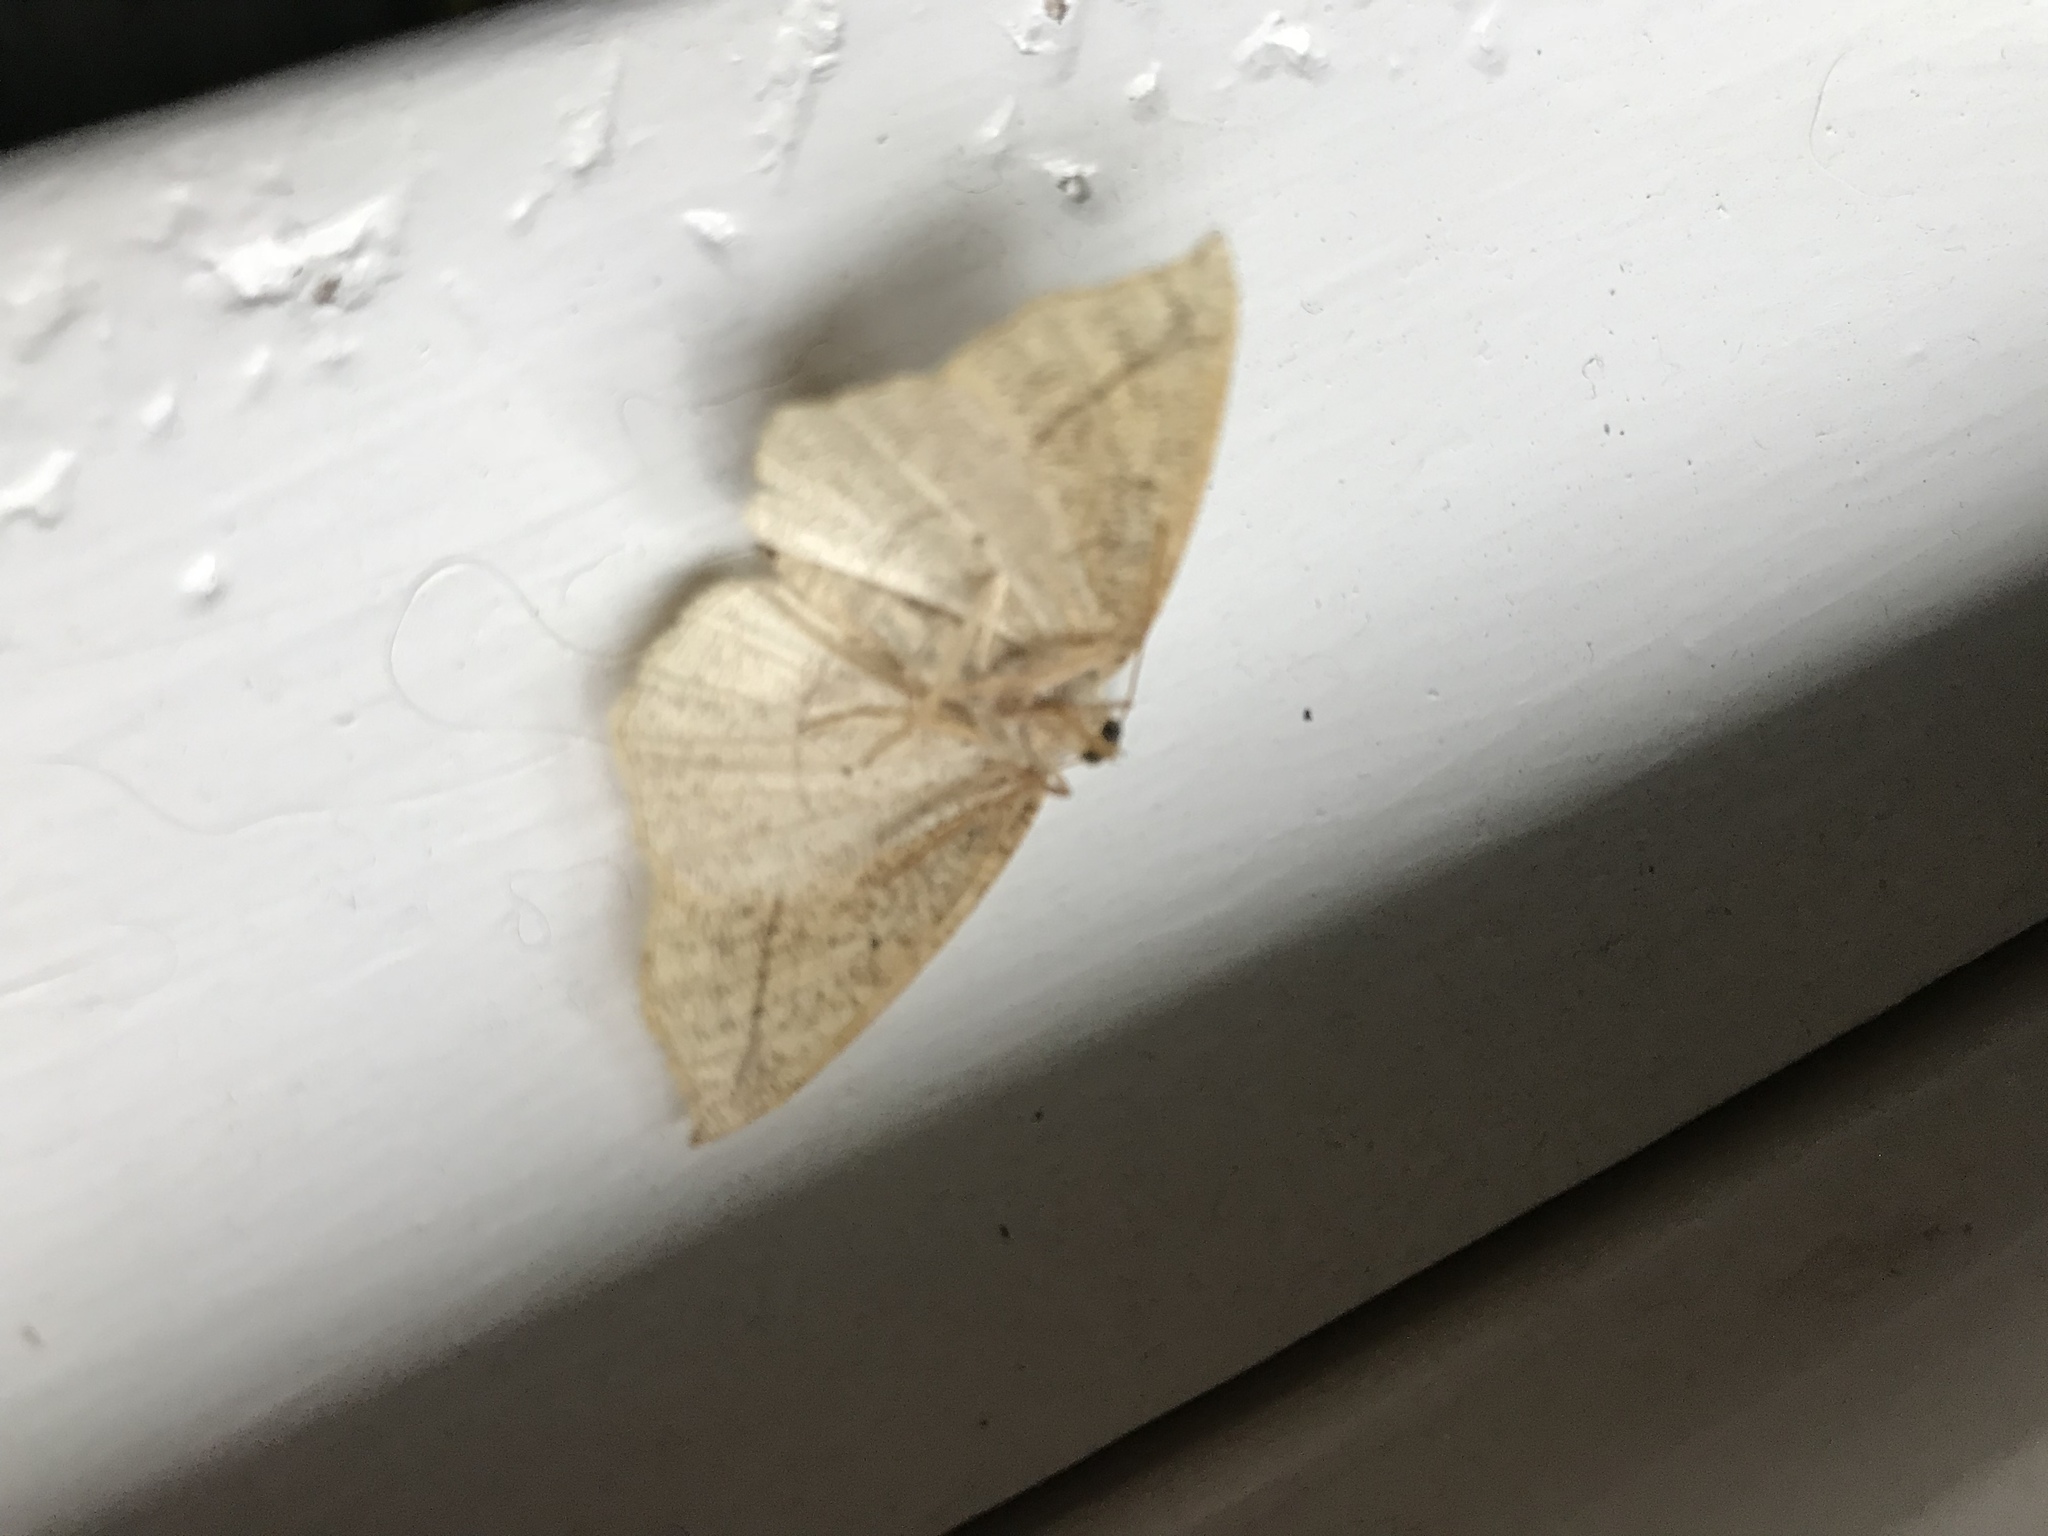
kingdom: Animalia
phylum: Arthropoda
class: Insecta
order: Lepidoptera
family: Geometridae
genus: Eusarca
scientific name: Eusarca confusaria
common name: Confused eusarca
